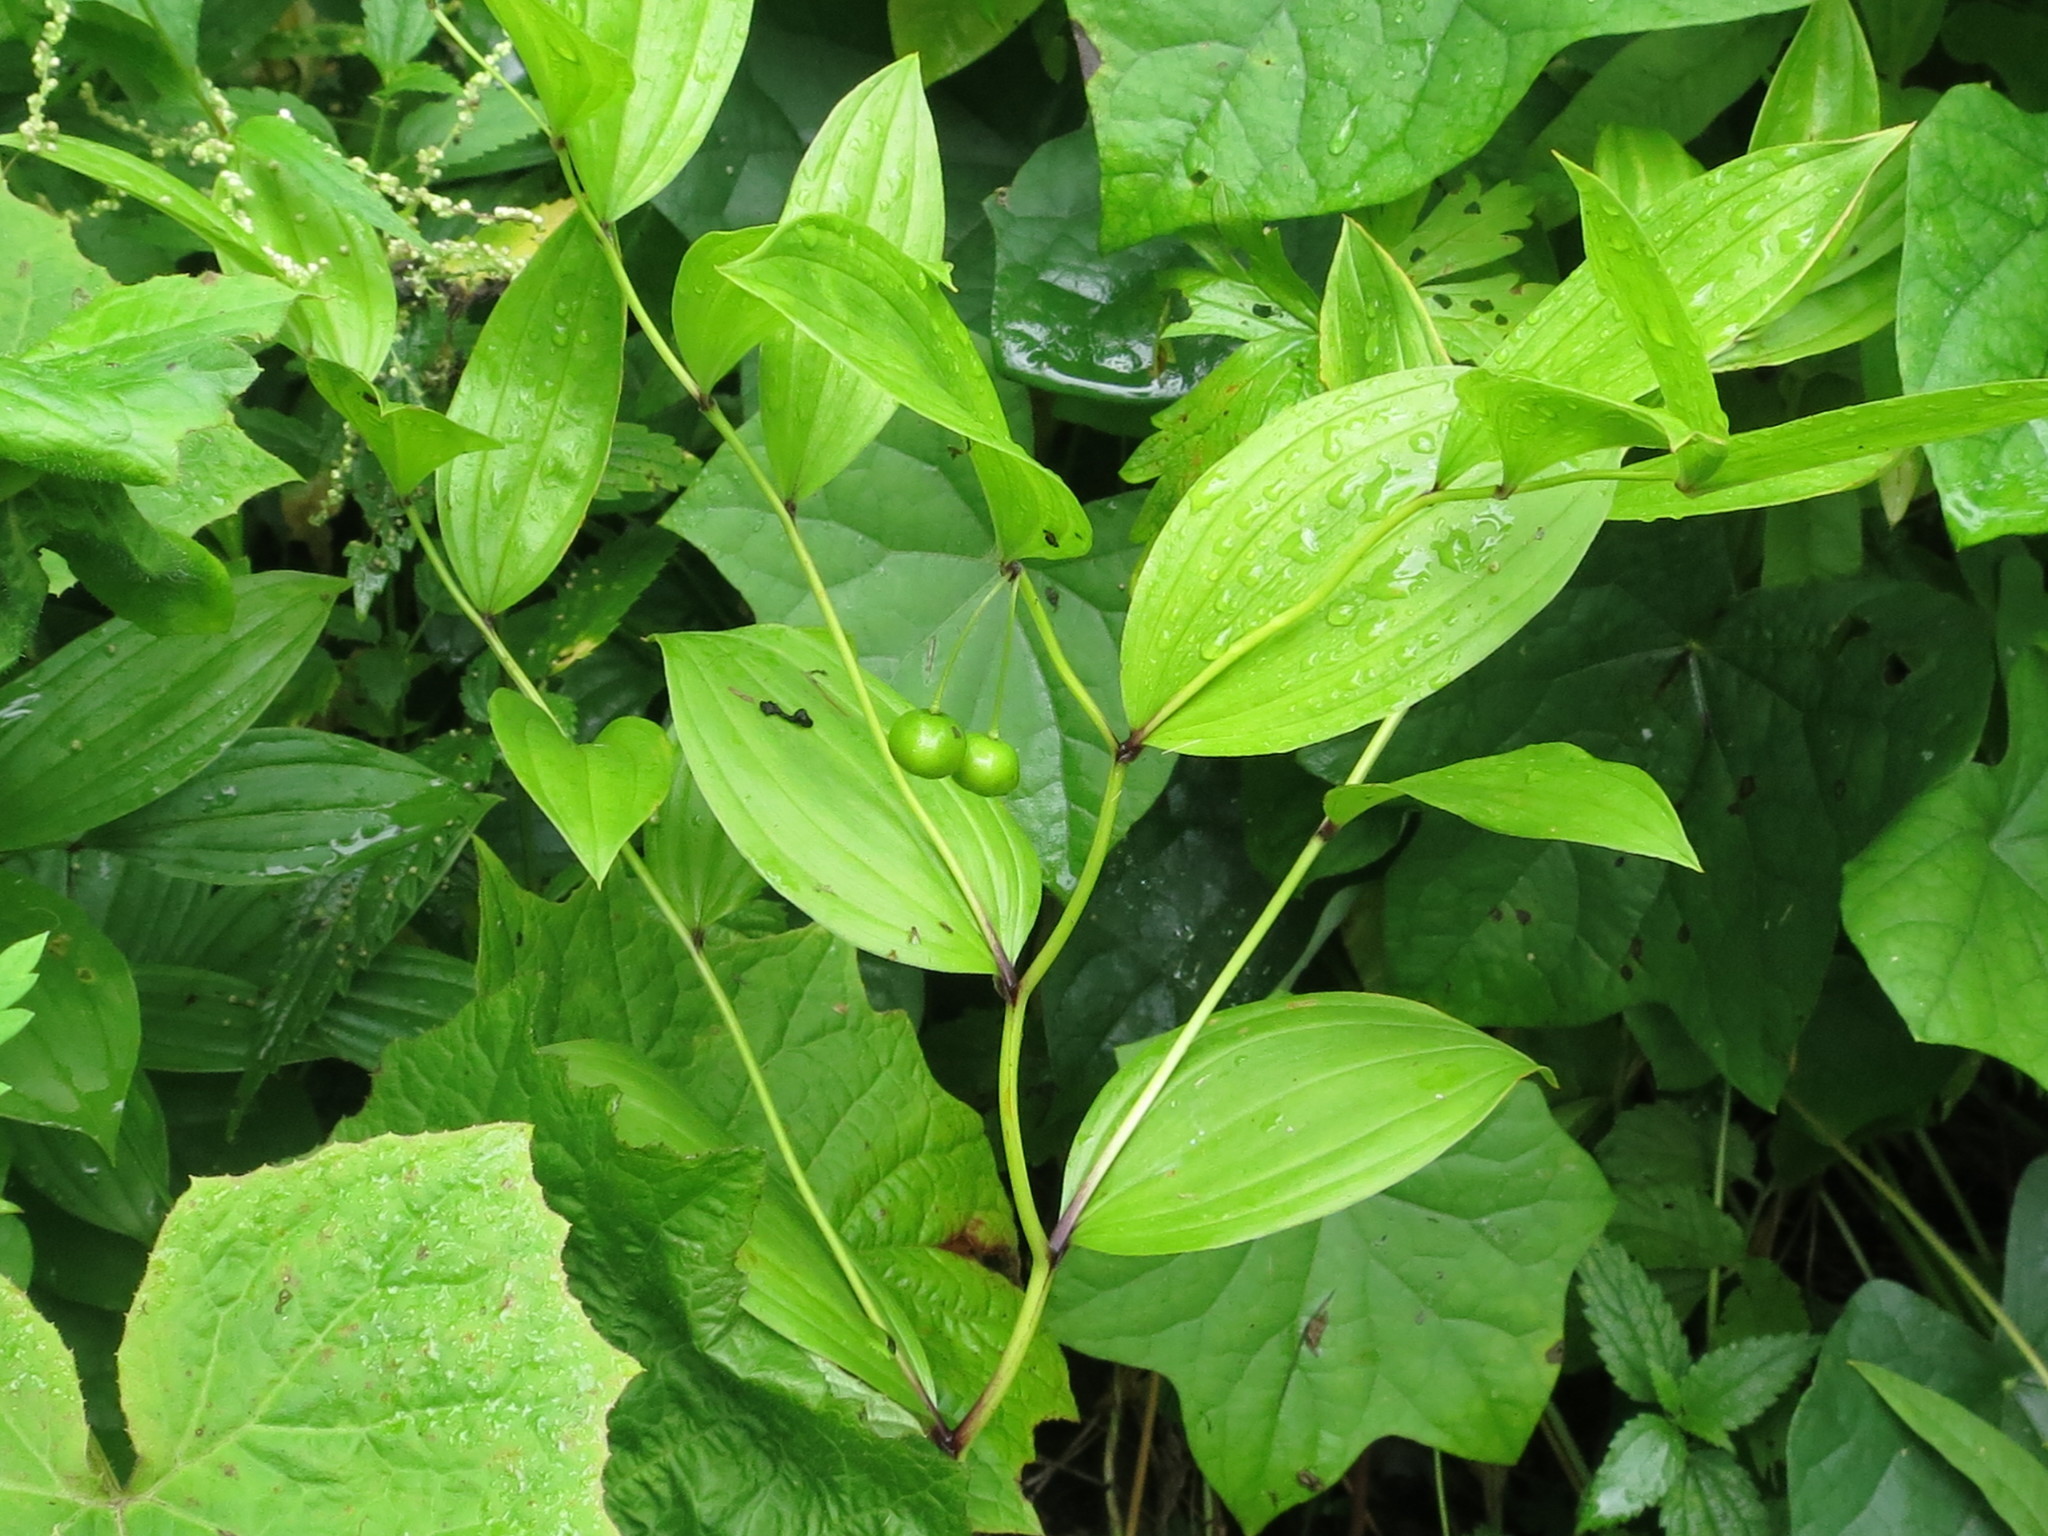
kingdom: Plantae
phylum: Tracheophyta
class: Liliopsida
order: Liliales
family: Colchicaceae
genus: Disporum
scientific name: Disporum viridescens
